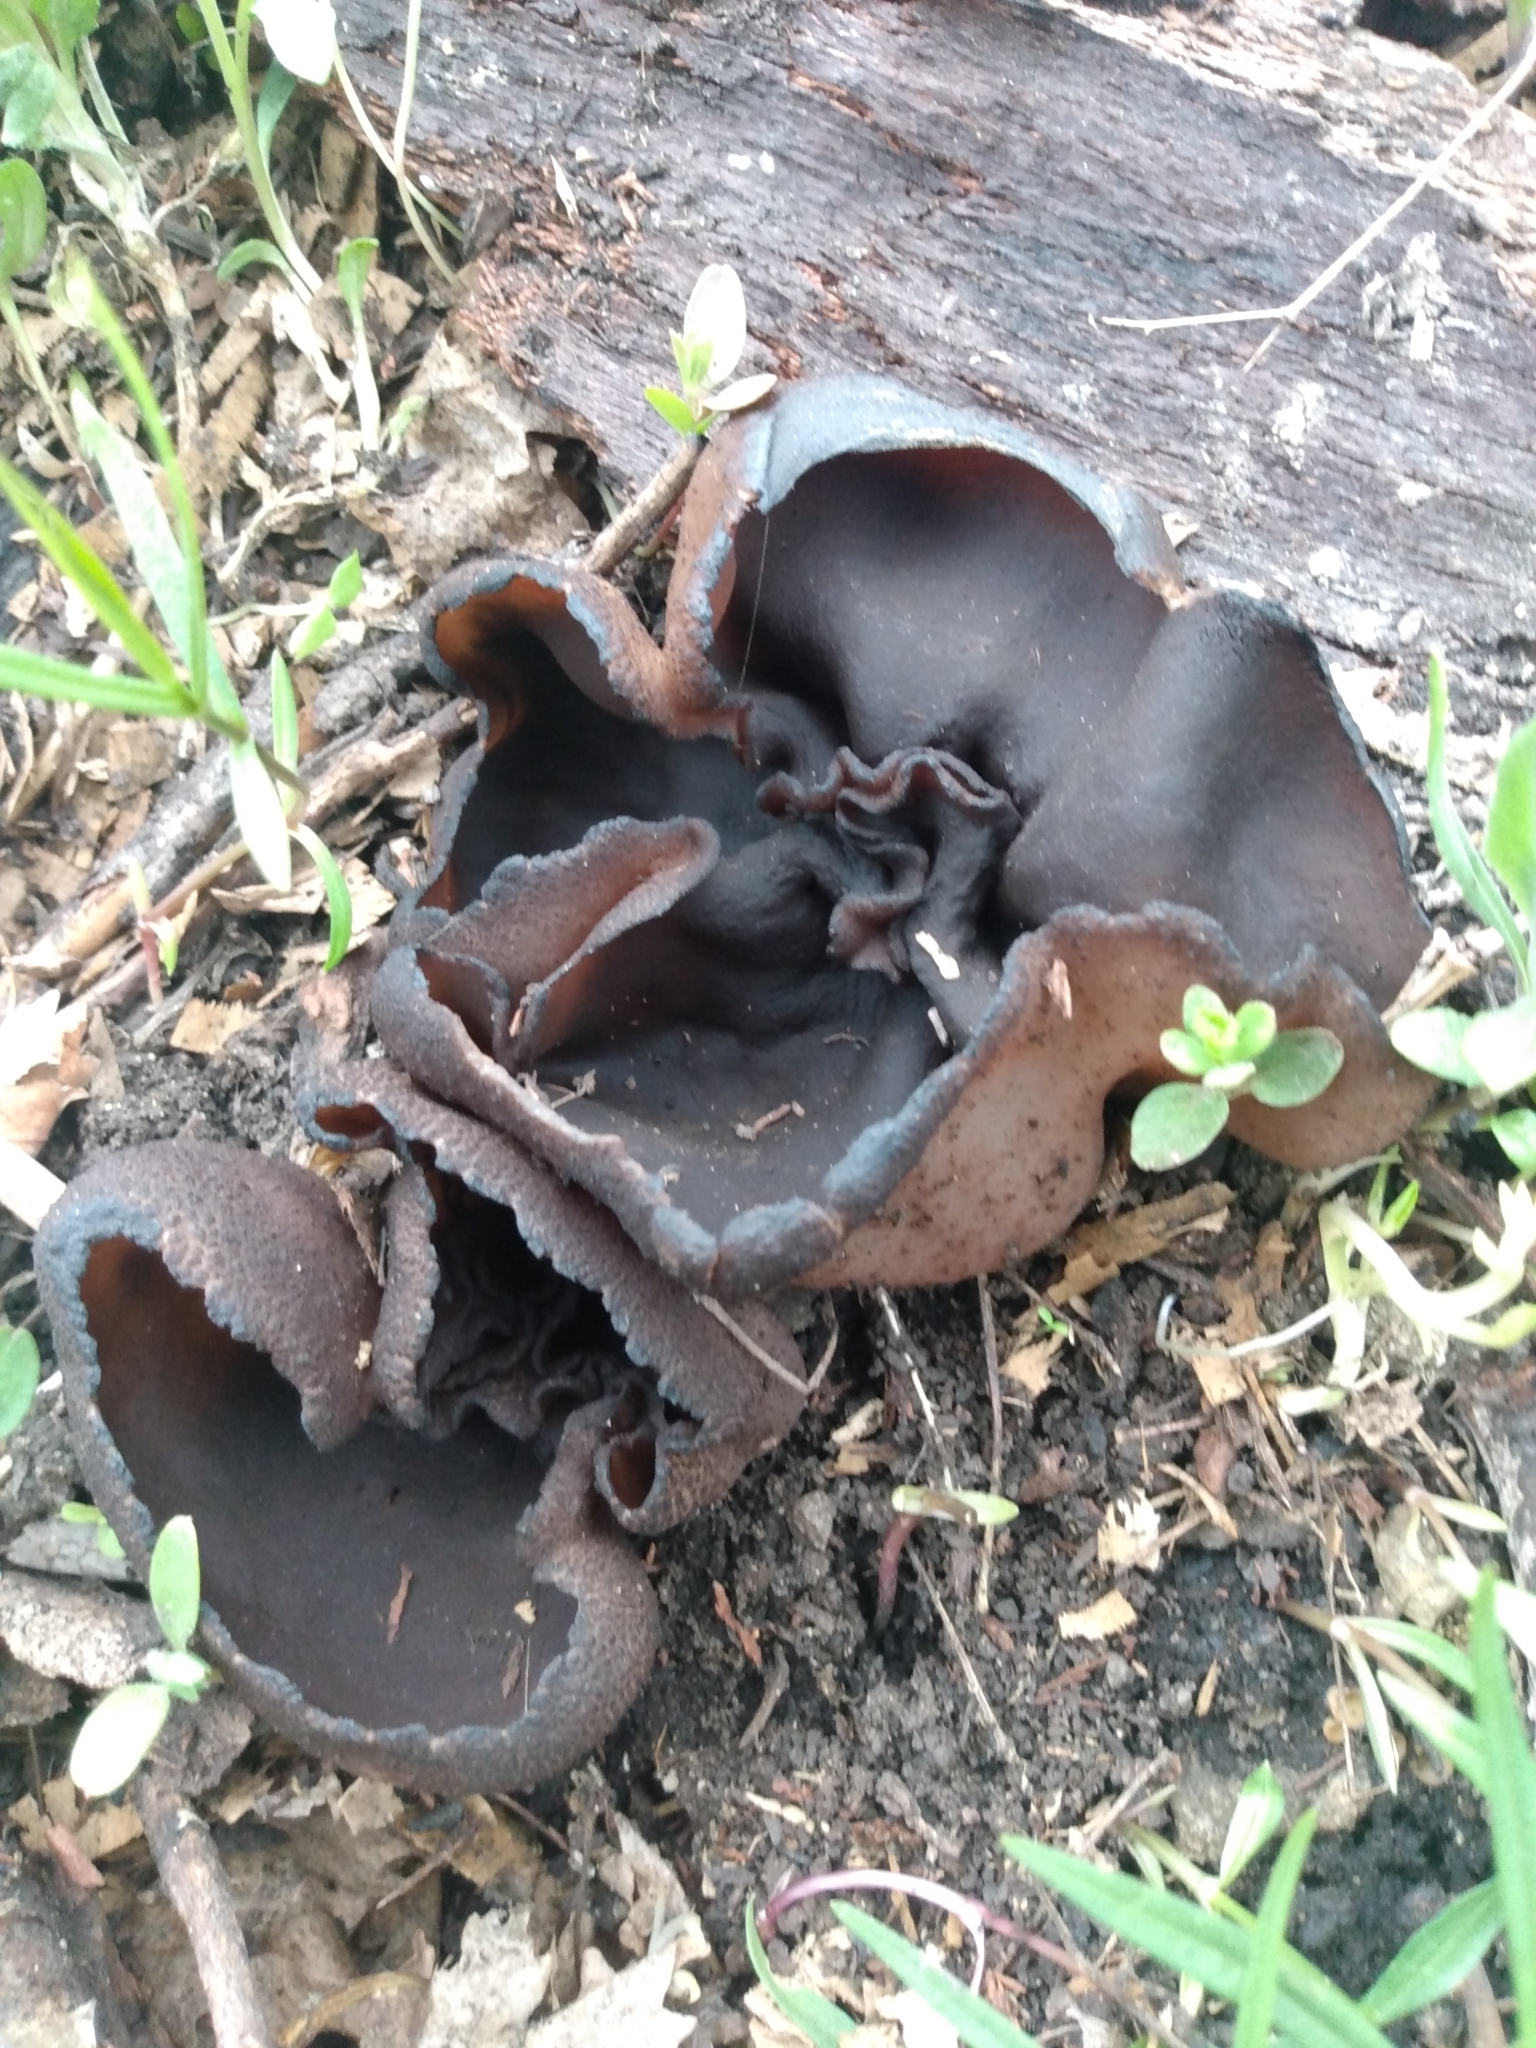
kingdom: Fungi
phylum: Ascomycota
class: Pezizomycetes
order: Pezizales
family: Pyronemataceae
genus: Plicaria
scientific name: Plicaria endocarpoides
